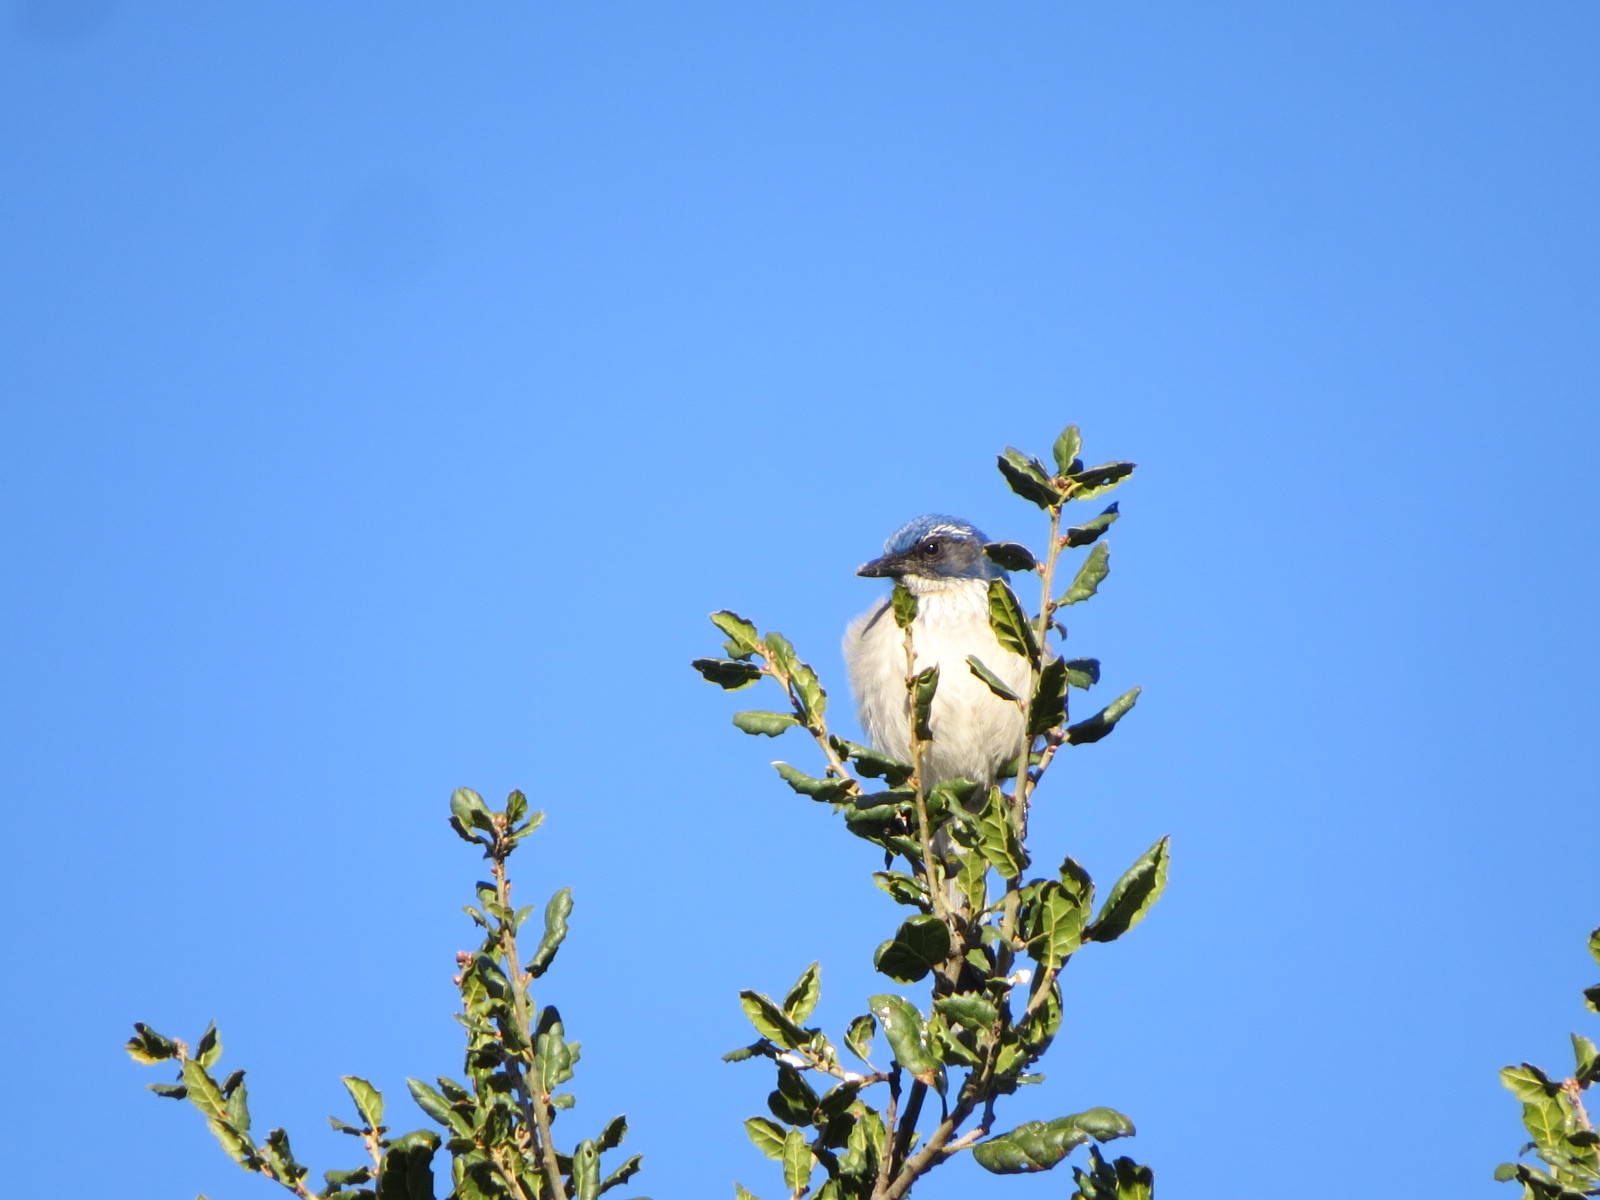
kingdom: Animalia
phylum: Chordata
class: Aves
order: Passeriformes
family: Corvidae
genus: Aphelocoma
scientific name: Aphelocoma californica
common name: California scrub-jay
